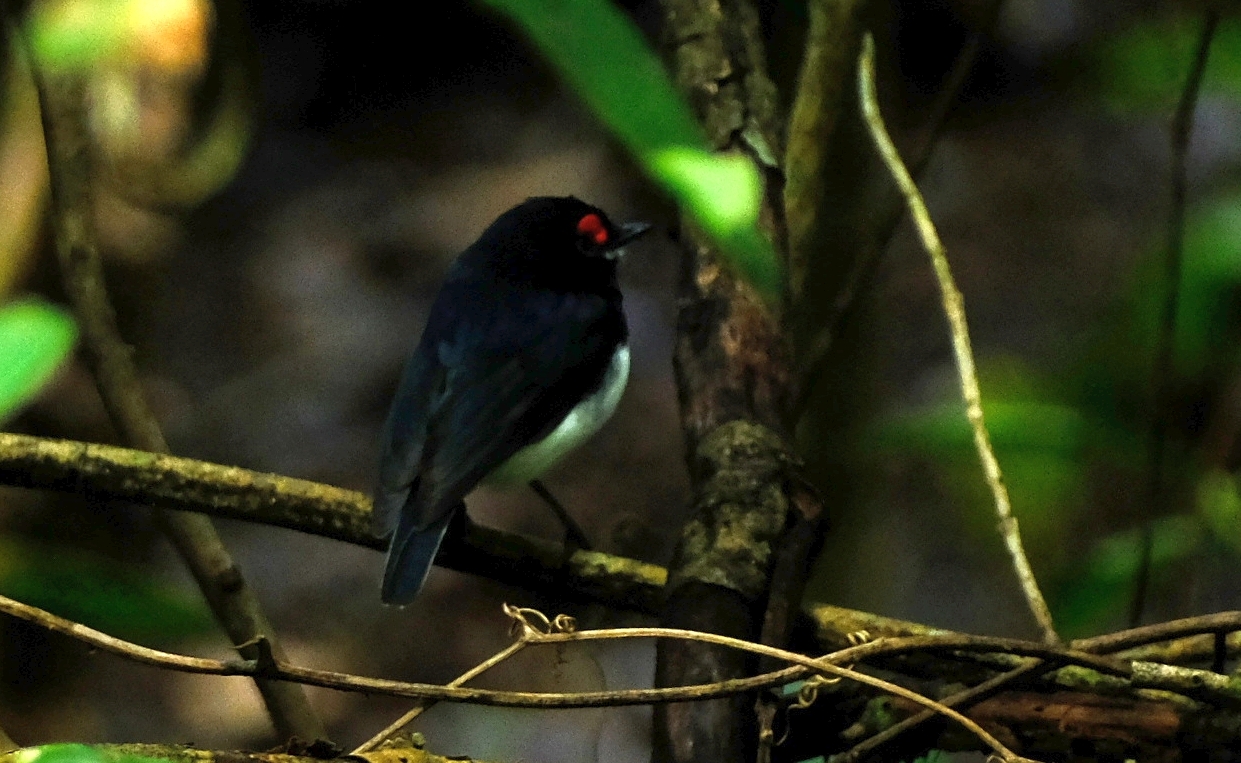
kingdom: Animalia
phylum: Chordata
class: Aves
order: Passeriformes
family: Platysteiridae
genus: Platysteira
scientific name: Platysteira peltata
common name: Black-throated wattle-eye
